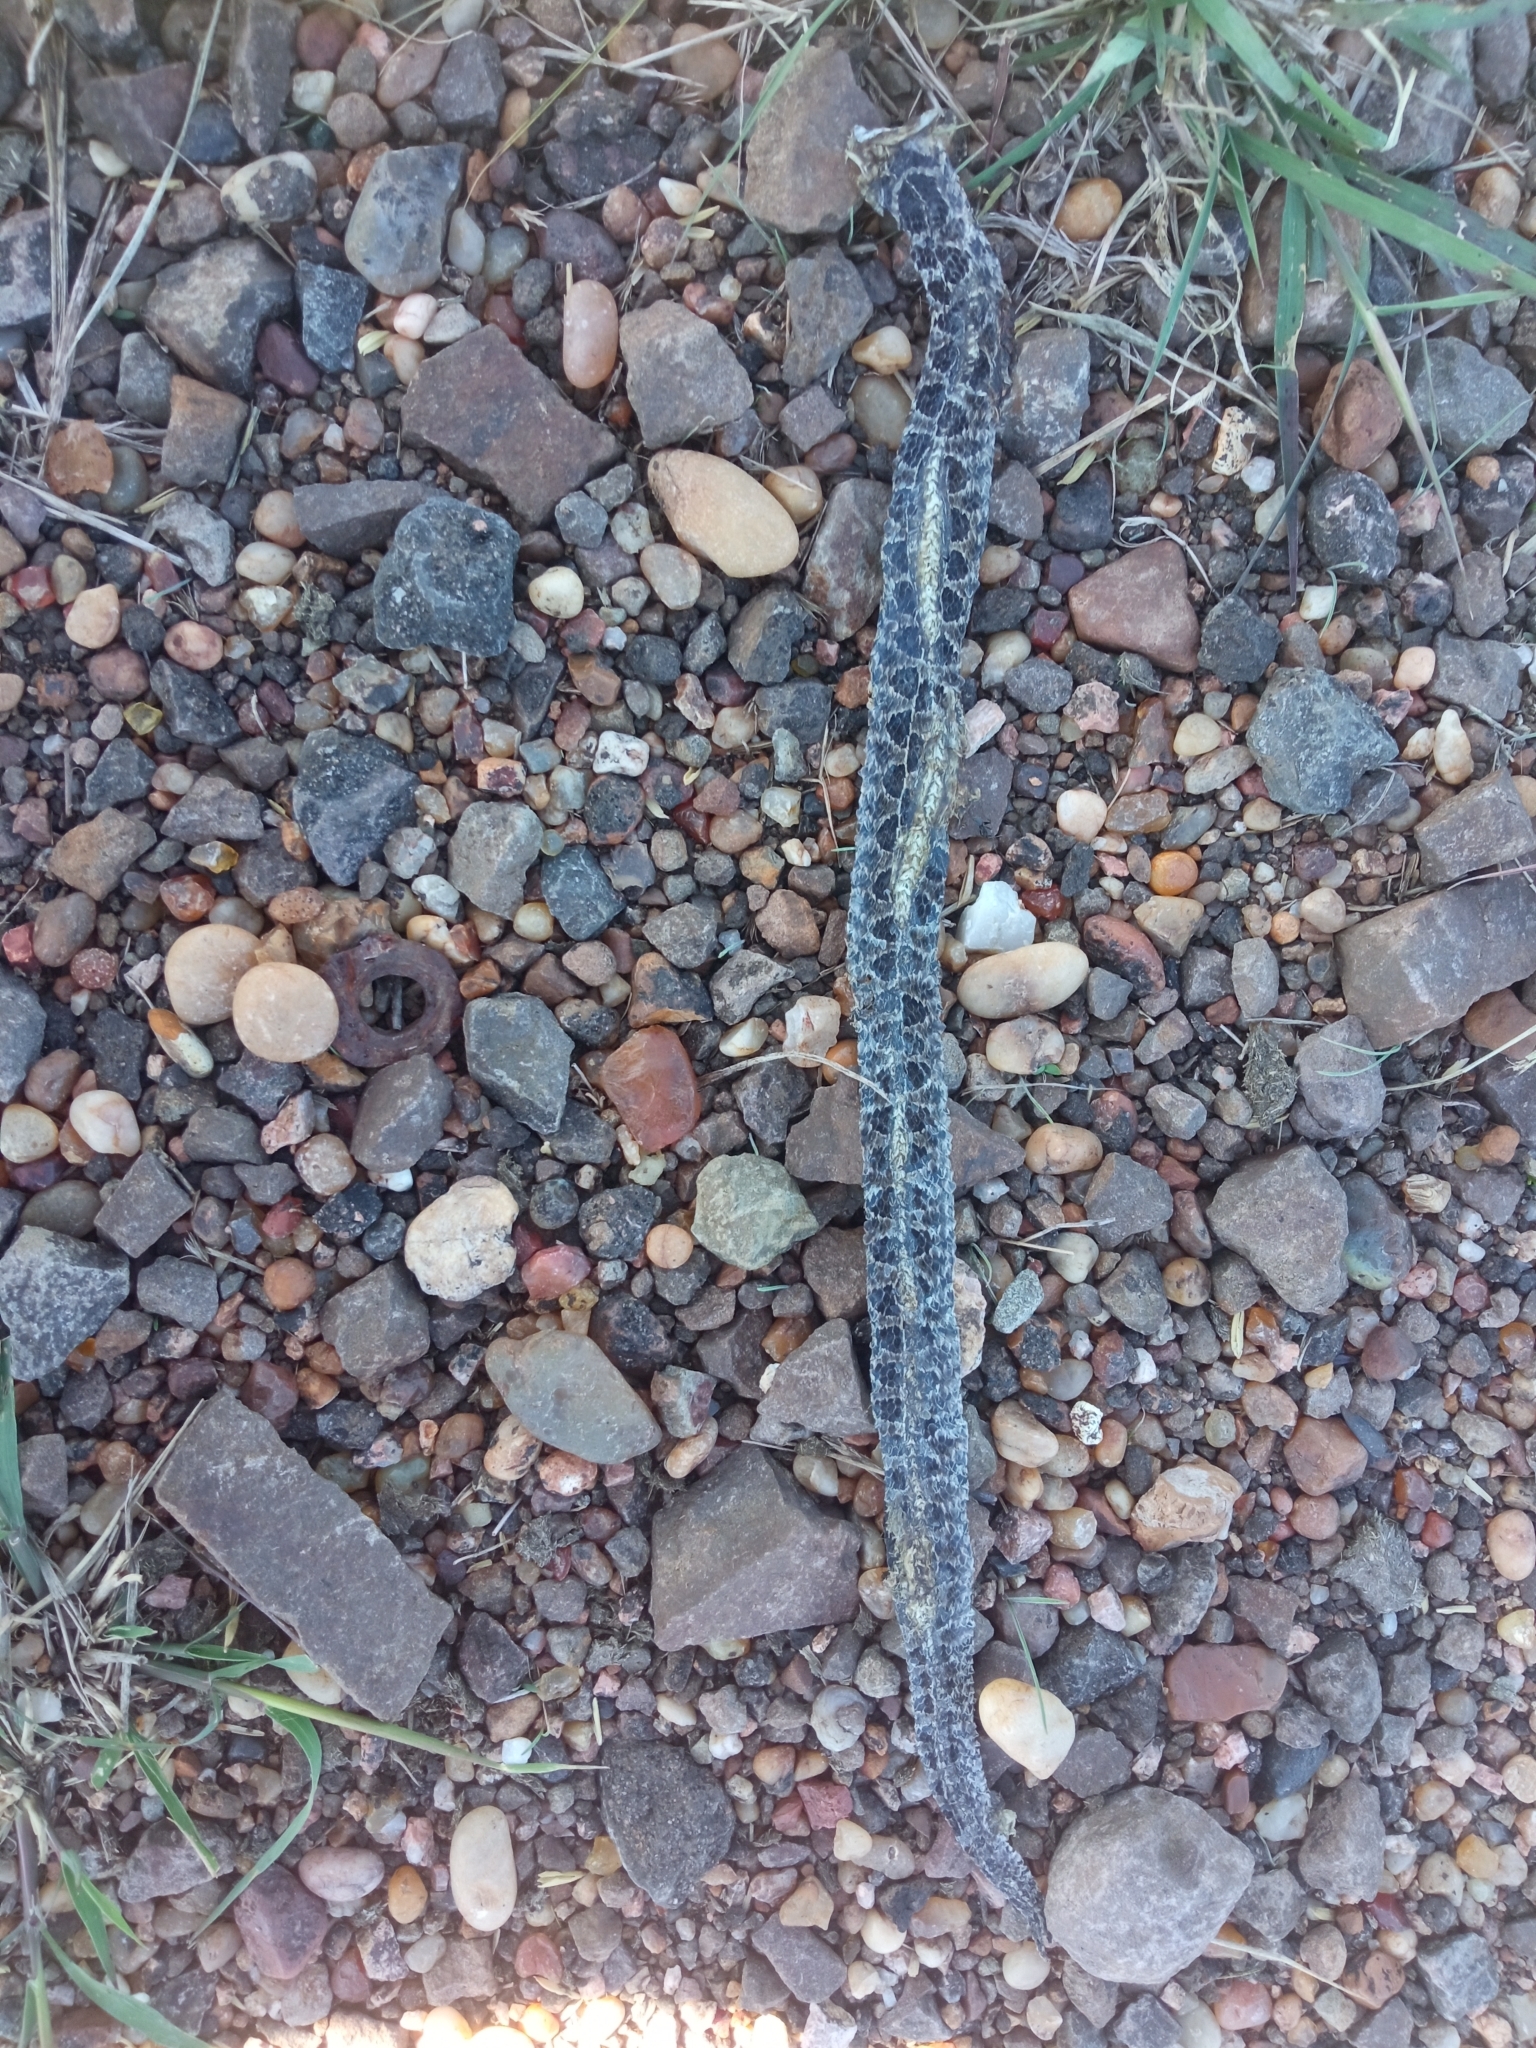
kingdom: Animalia
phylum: Chordata
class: Squamata
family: Colubridae
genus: Tachymenis
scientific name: Tachymenis
